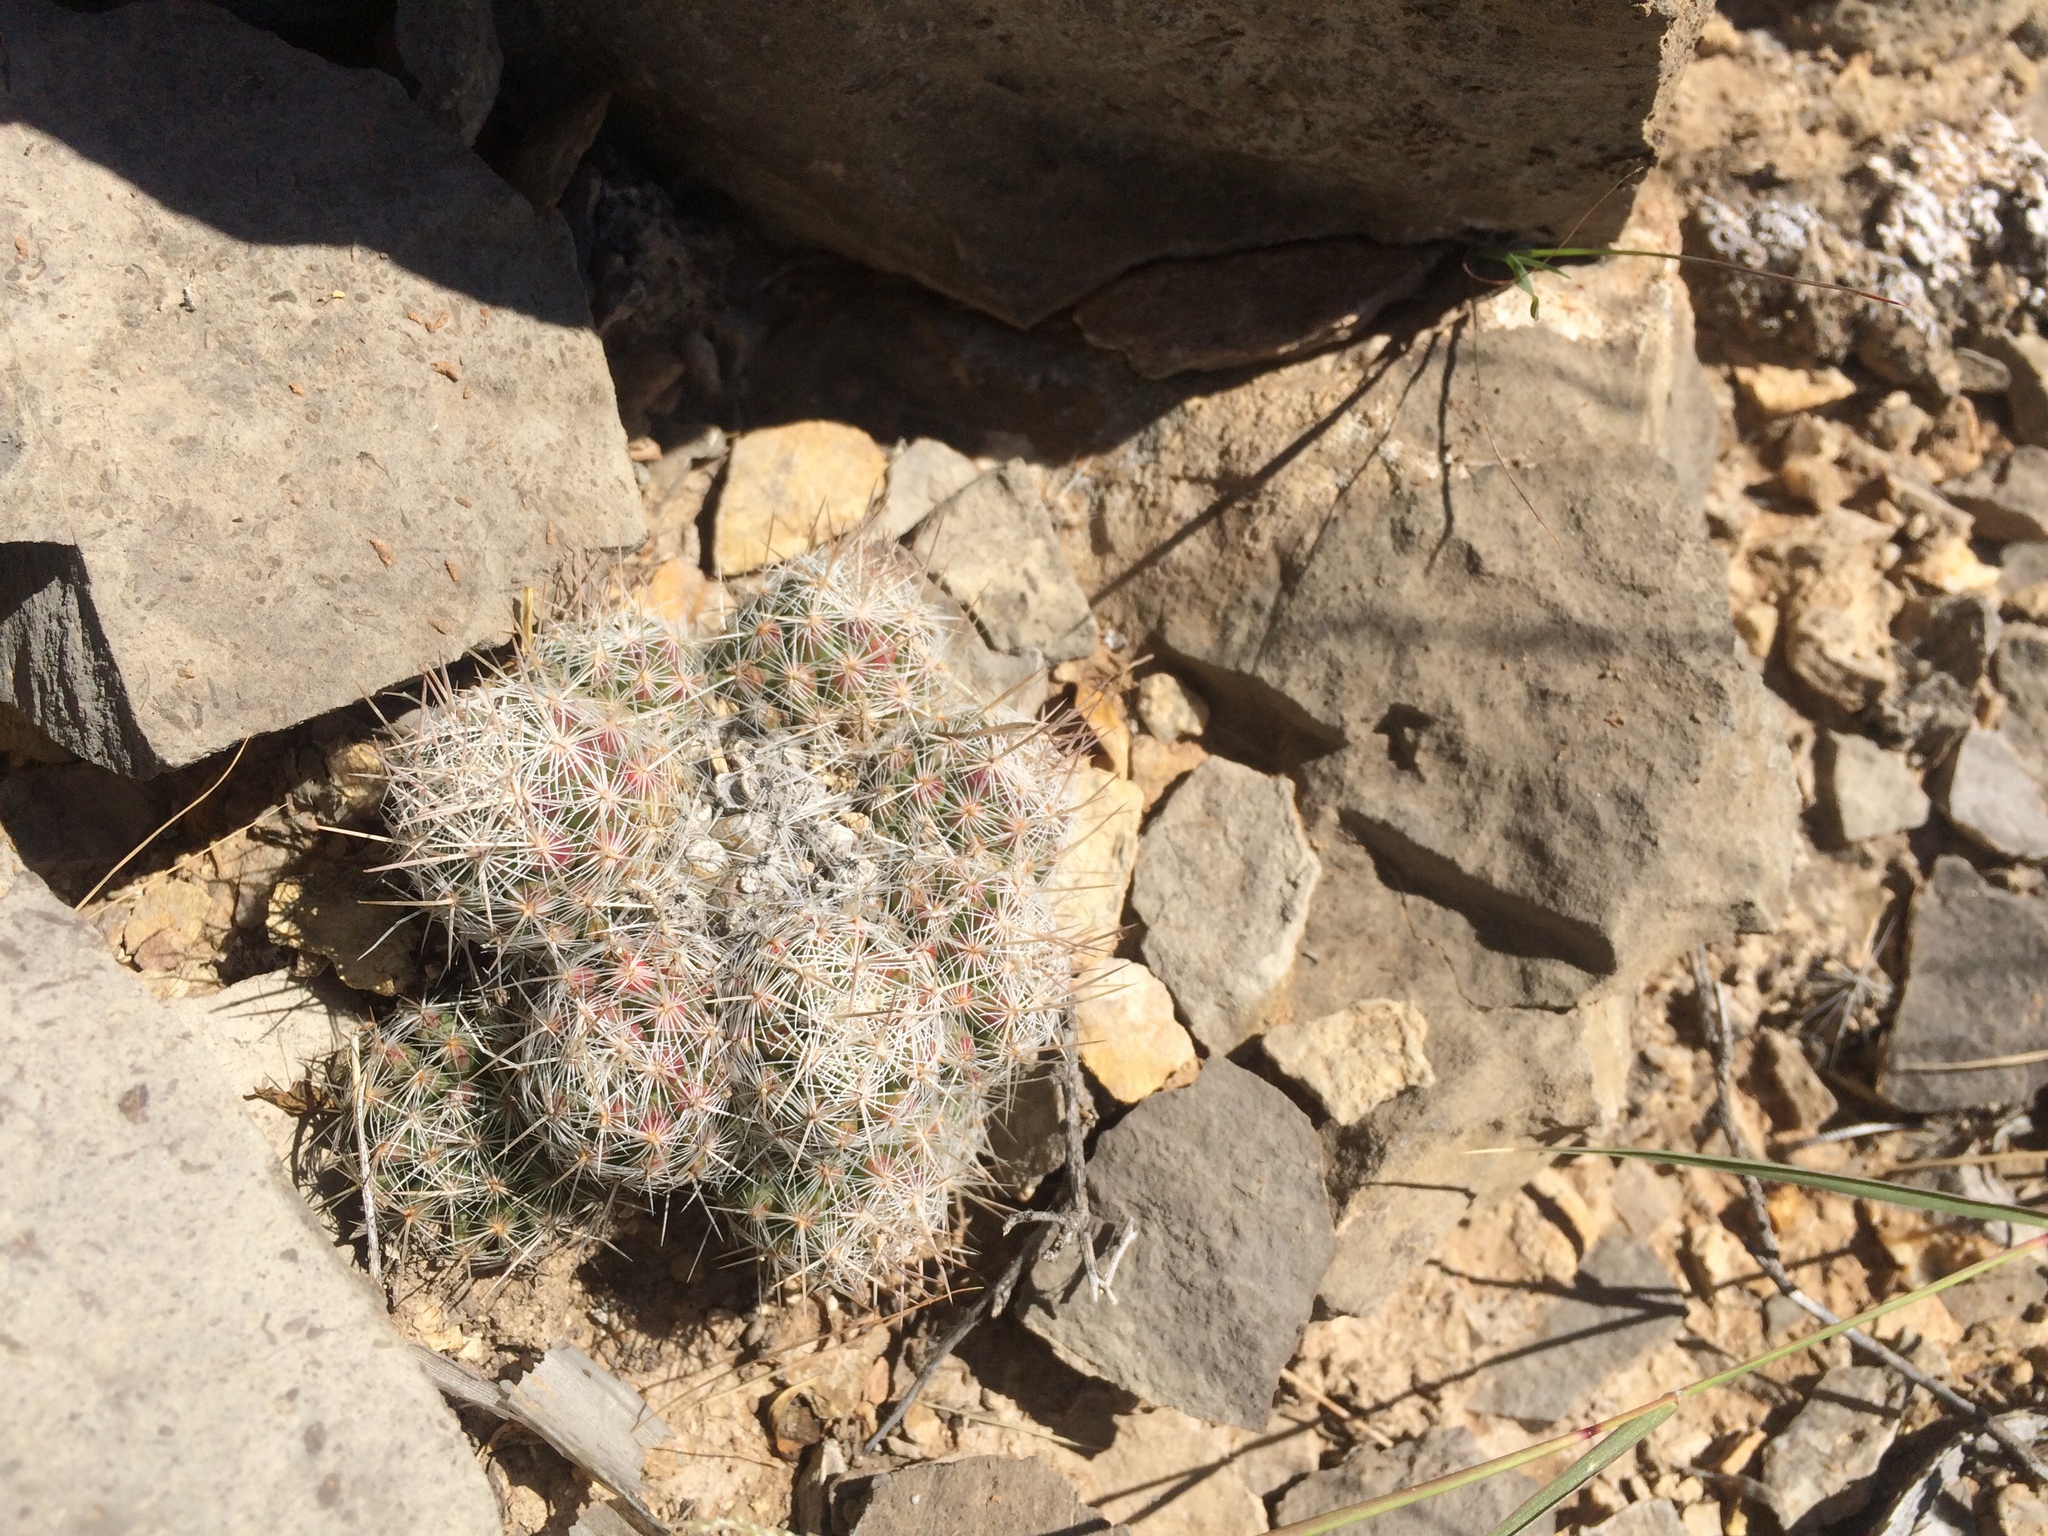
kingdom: Plantae
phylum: Tracheophyta
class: Magnoliopsida
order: Caryophyllales
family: Cactaceae
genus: Pelecyphora
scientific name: Pelecyphora tuberculosa
